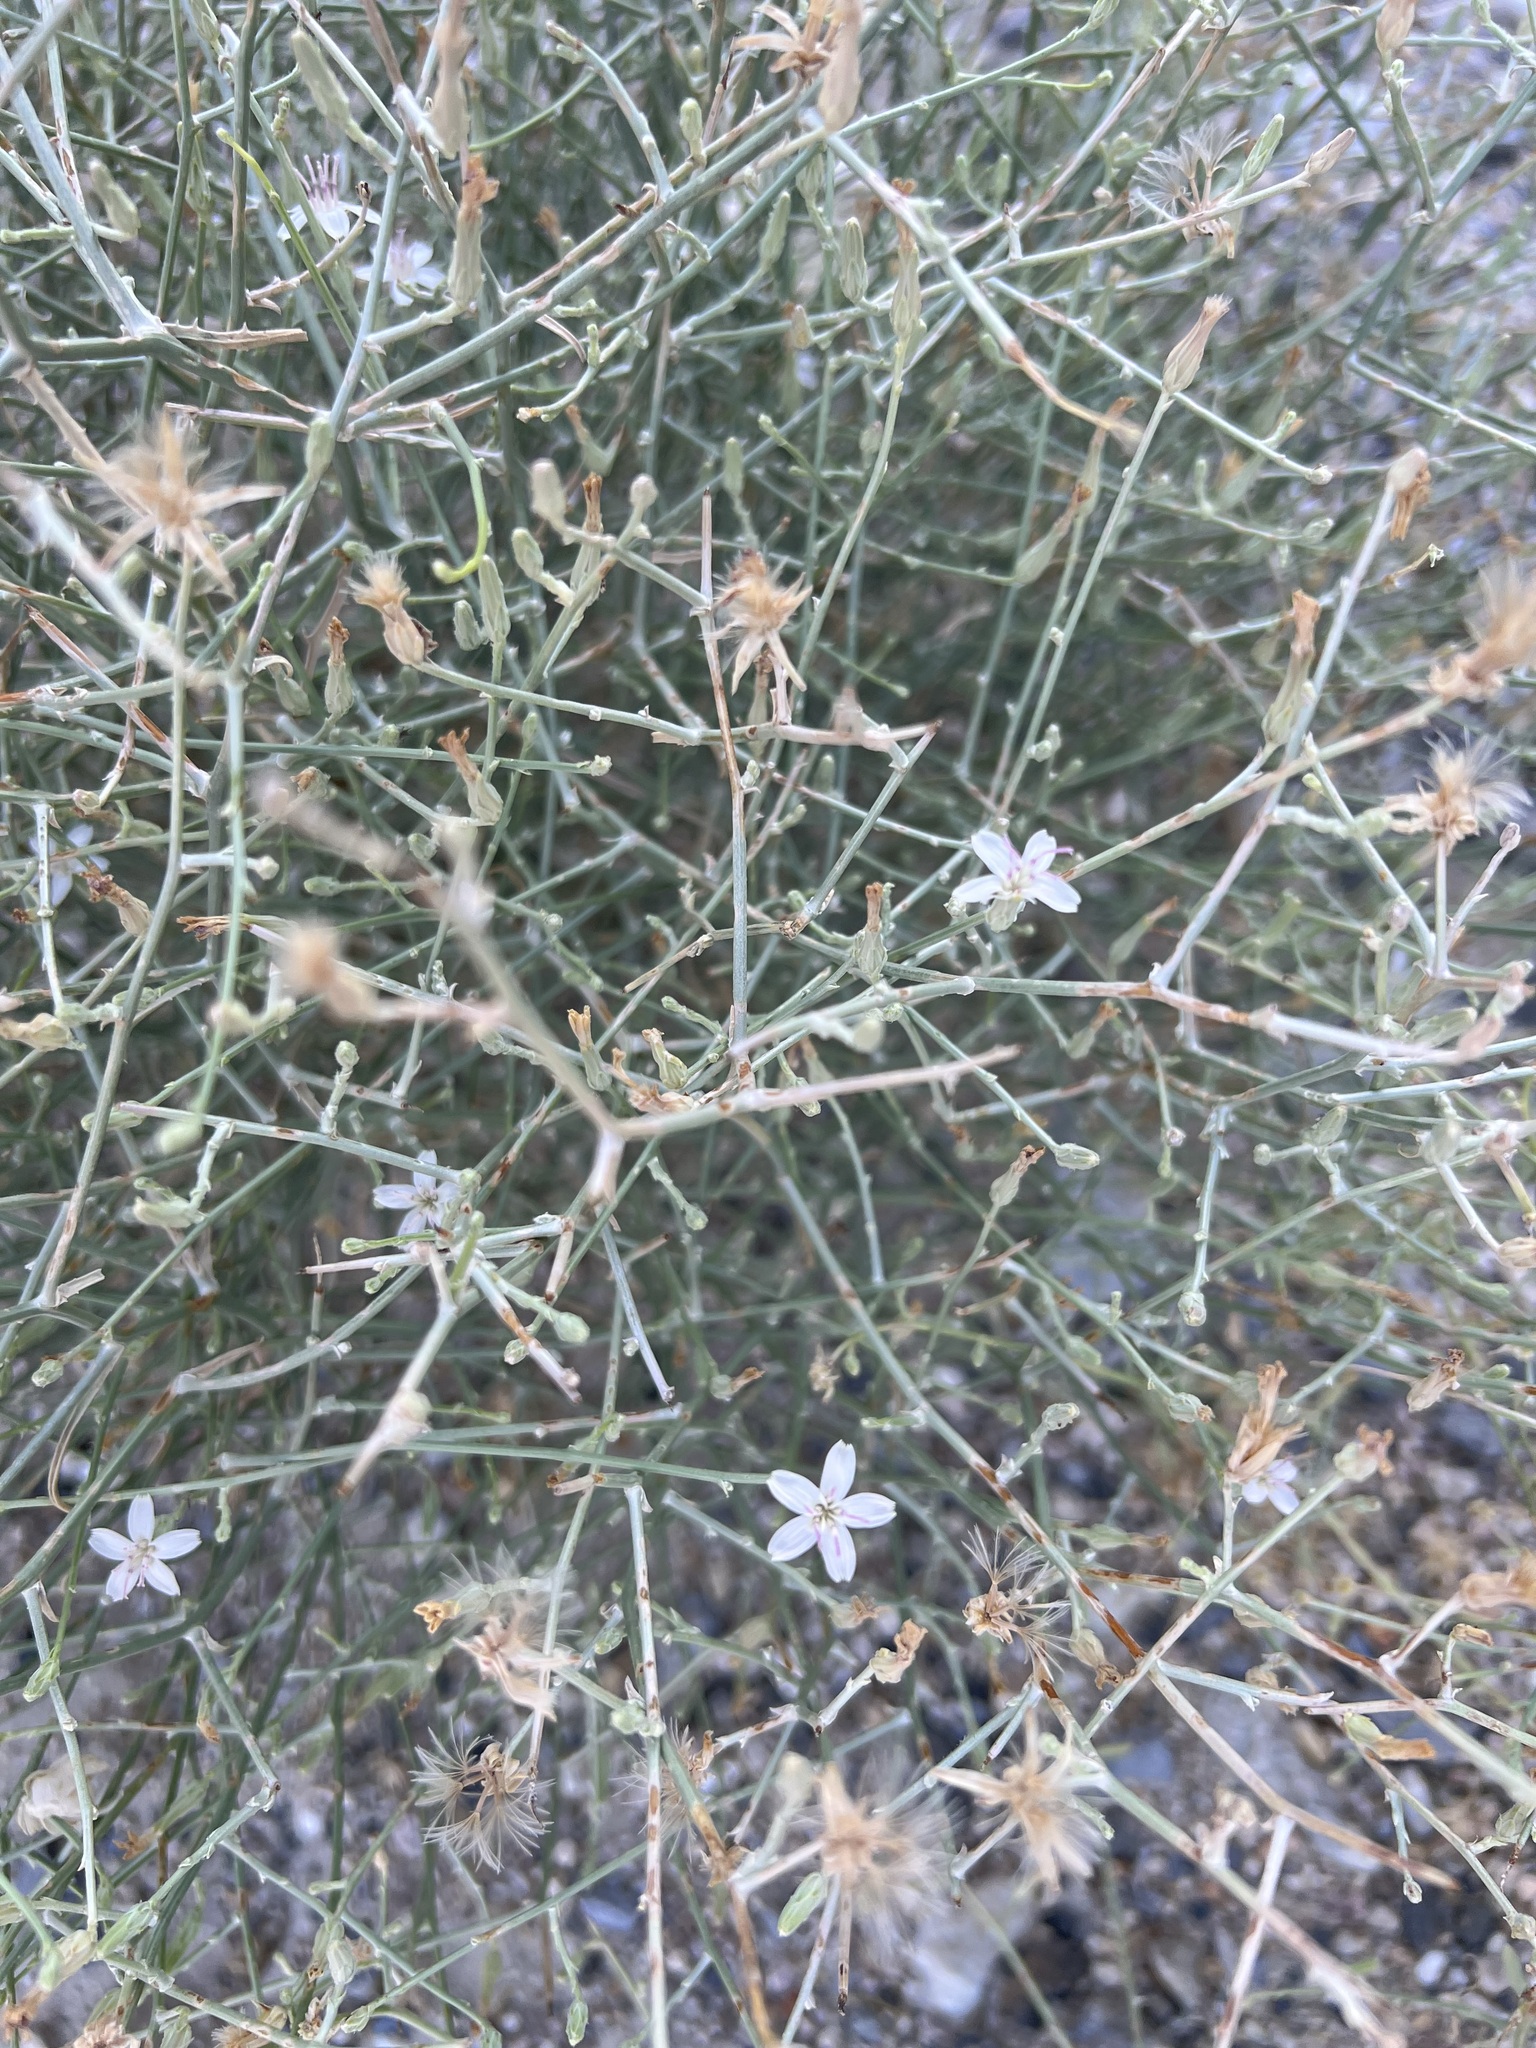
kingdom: Plantae
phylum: Tracheophyta
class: Magnoliopsida
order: Asterales
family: Asteraceae
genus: Stephanomeria
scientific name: Stephanomeria pauciflora
